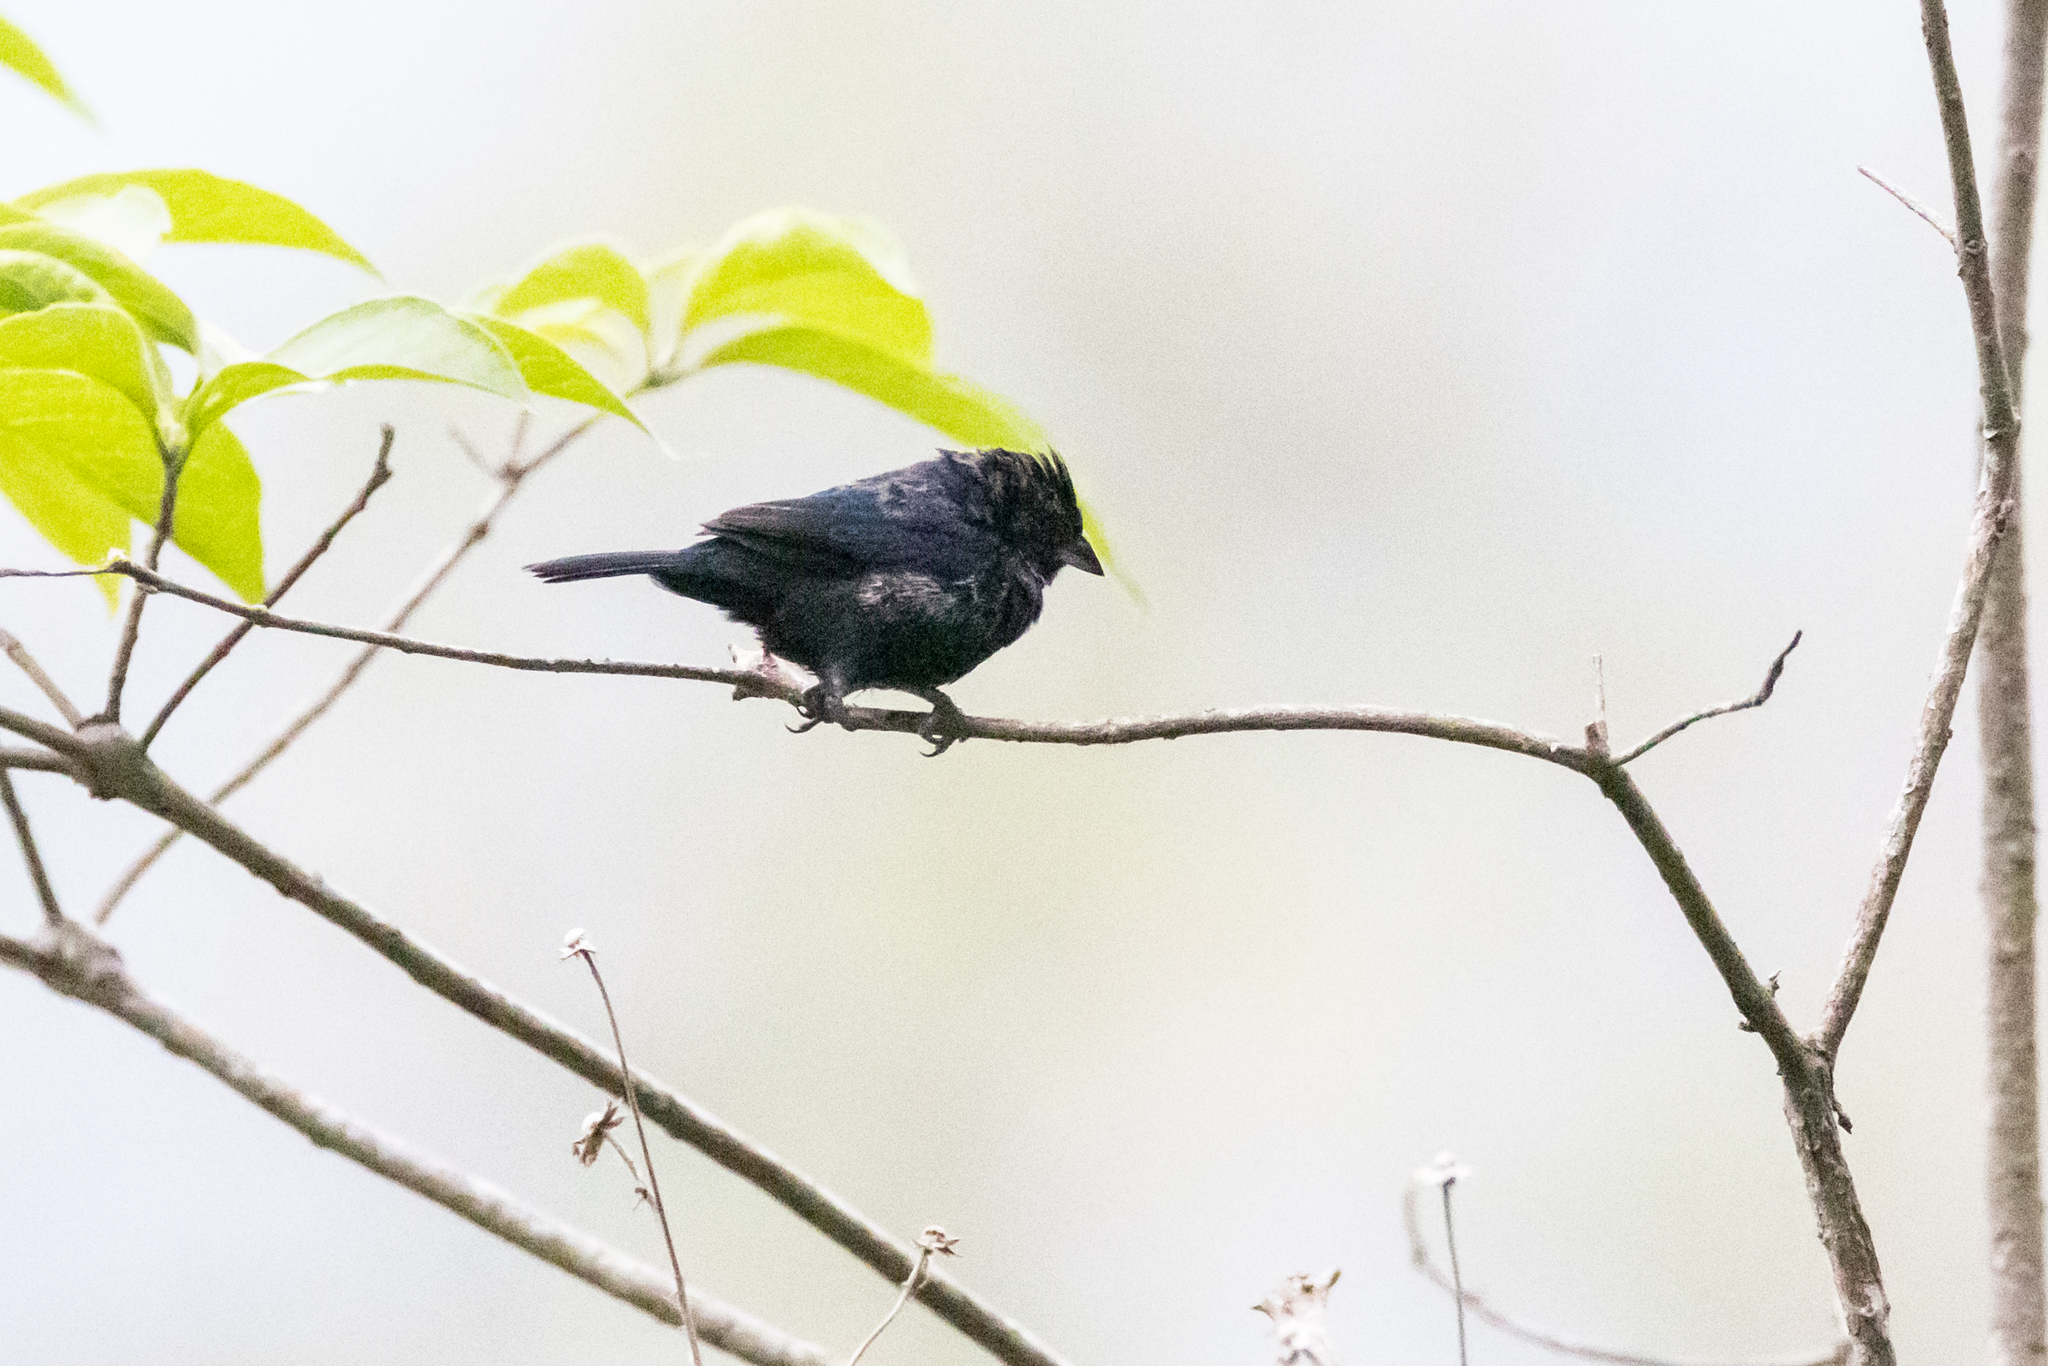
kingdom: Animalia
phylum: Chordata
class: Aves
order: Passeriformes
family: Thraupidae
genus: Volatinia
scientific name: Volatinia jacarina
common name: Blue-black grassquit
